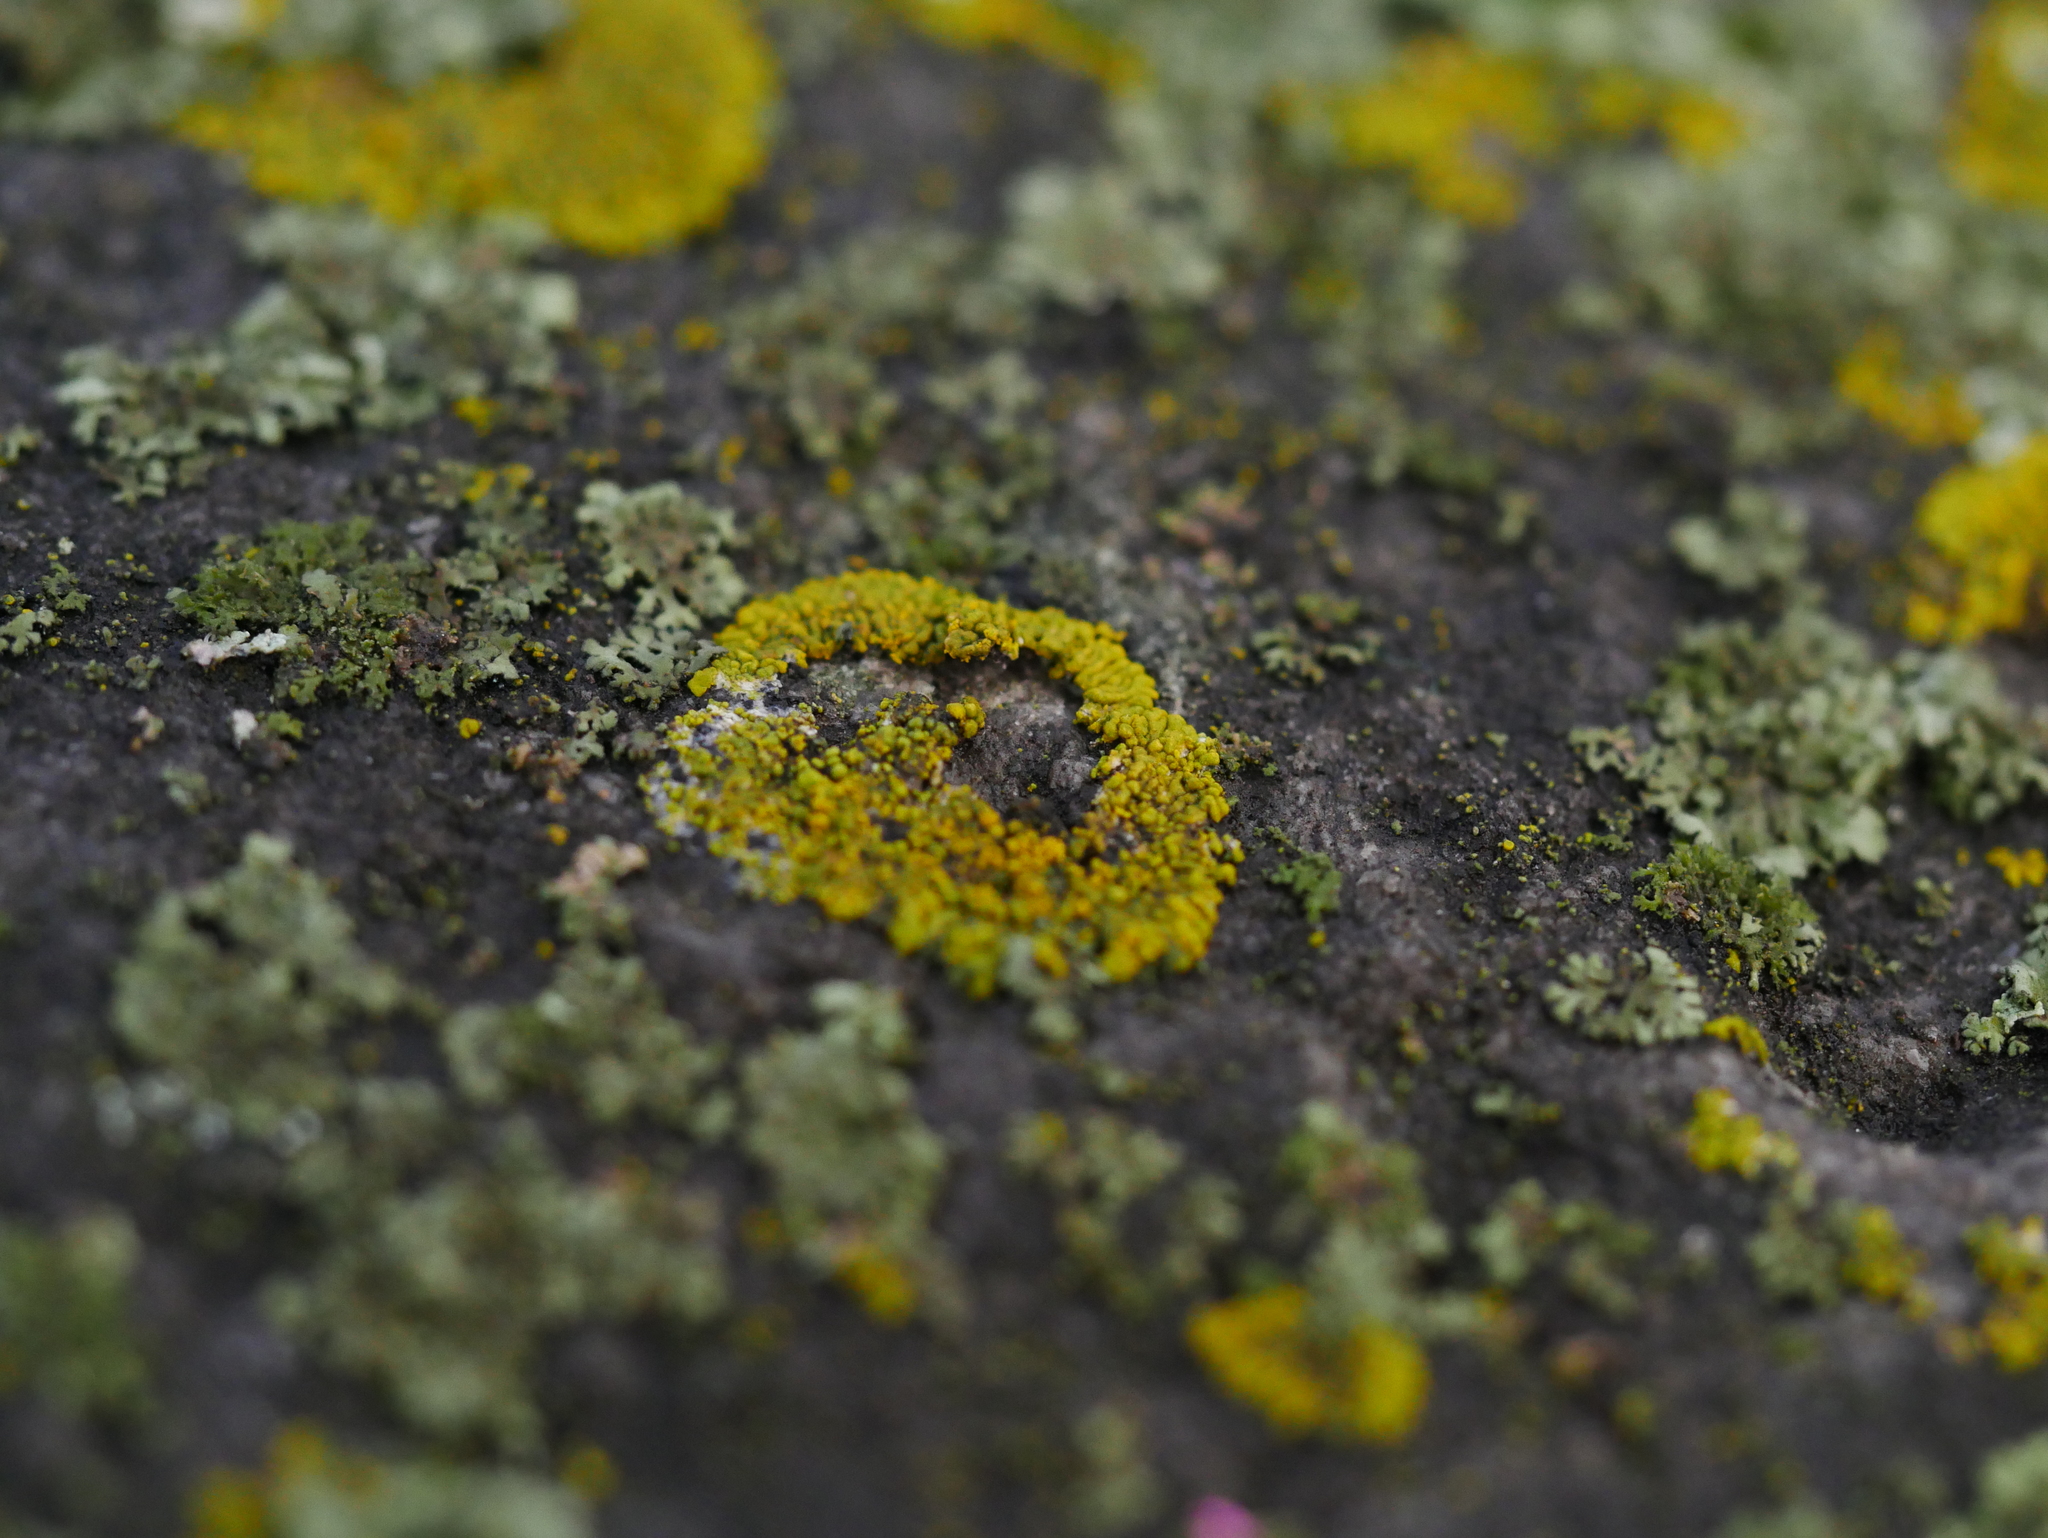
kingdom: Fungi
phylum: Ascomycota
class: Lecanoromycetes
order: Teloschistales
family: Teloschistaceae
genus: Calogaya
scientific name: Calogaya decipiens
